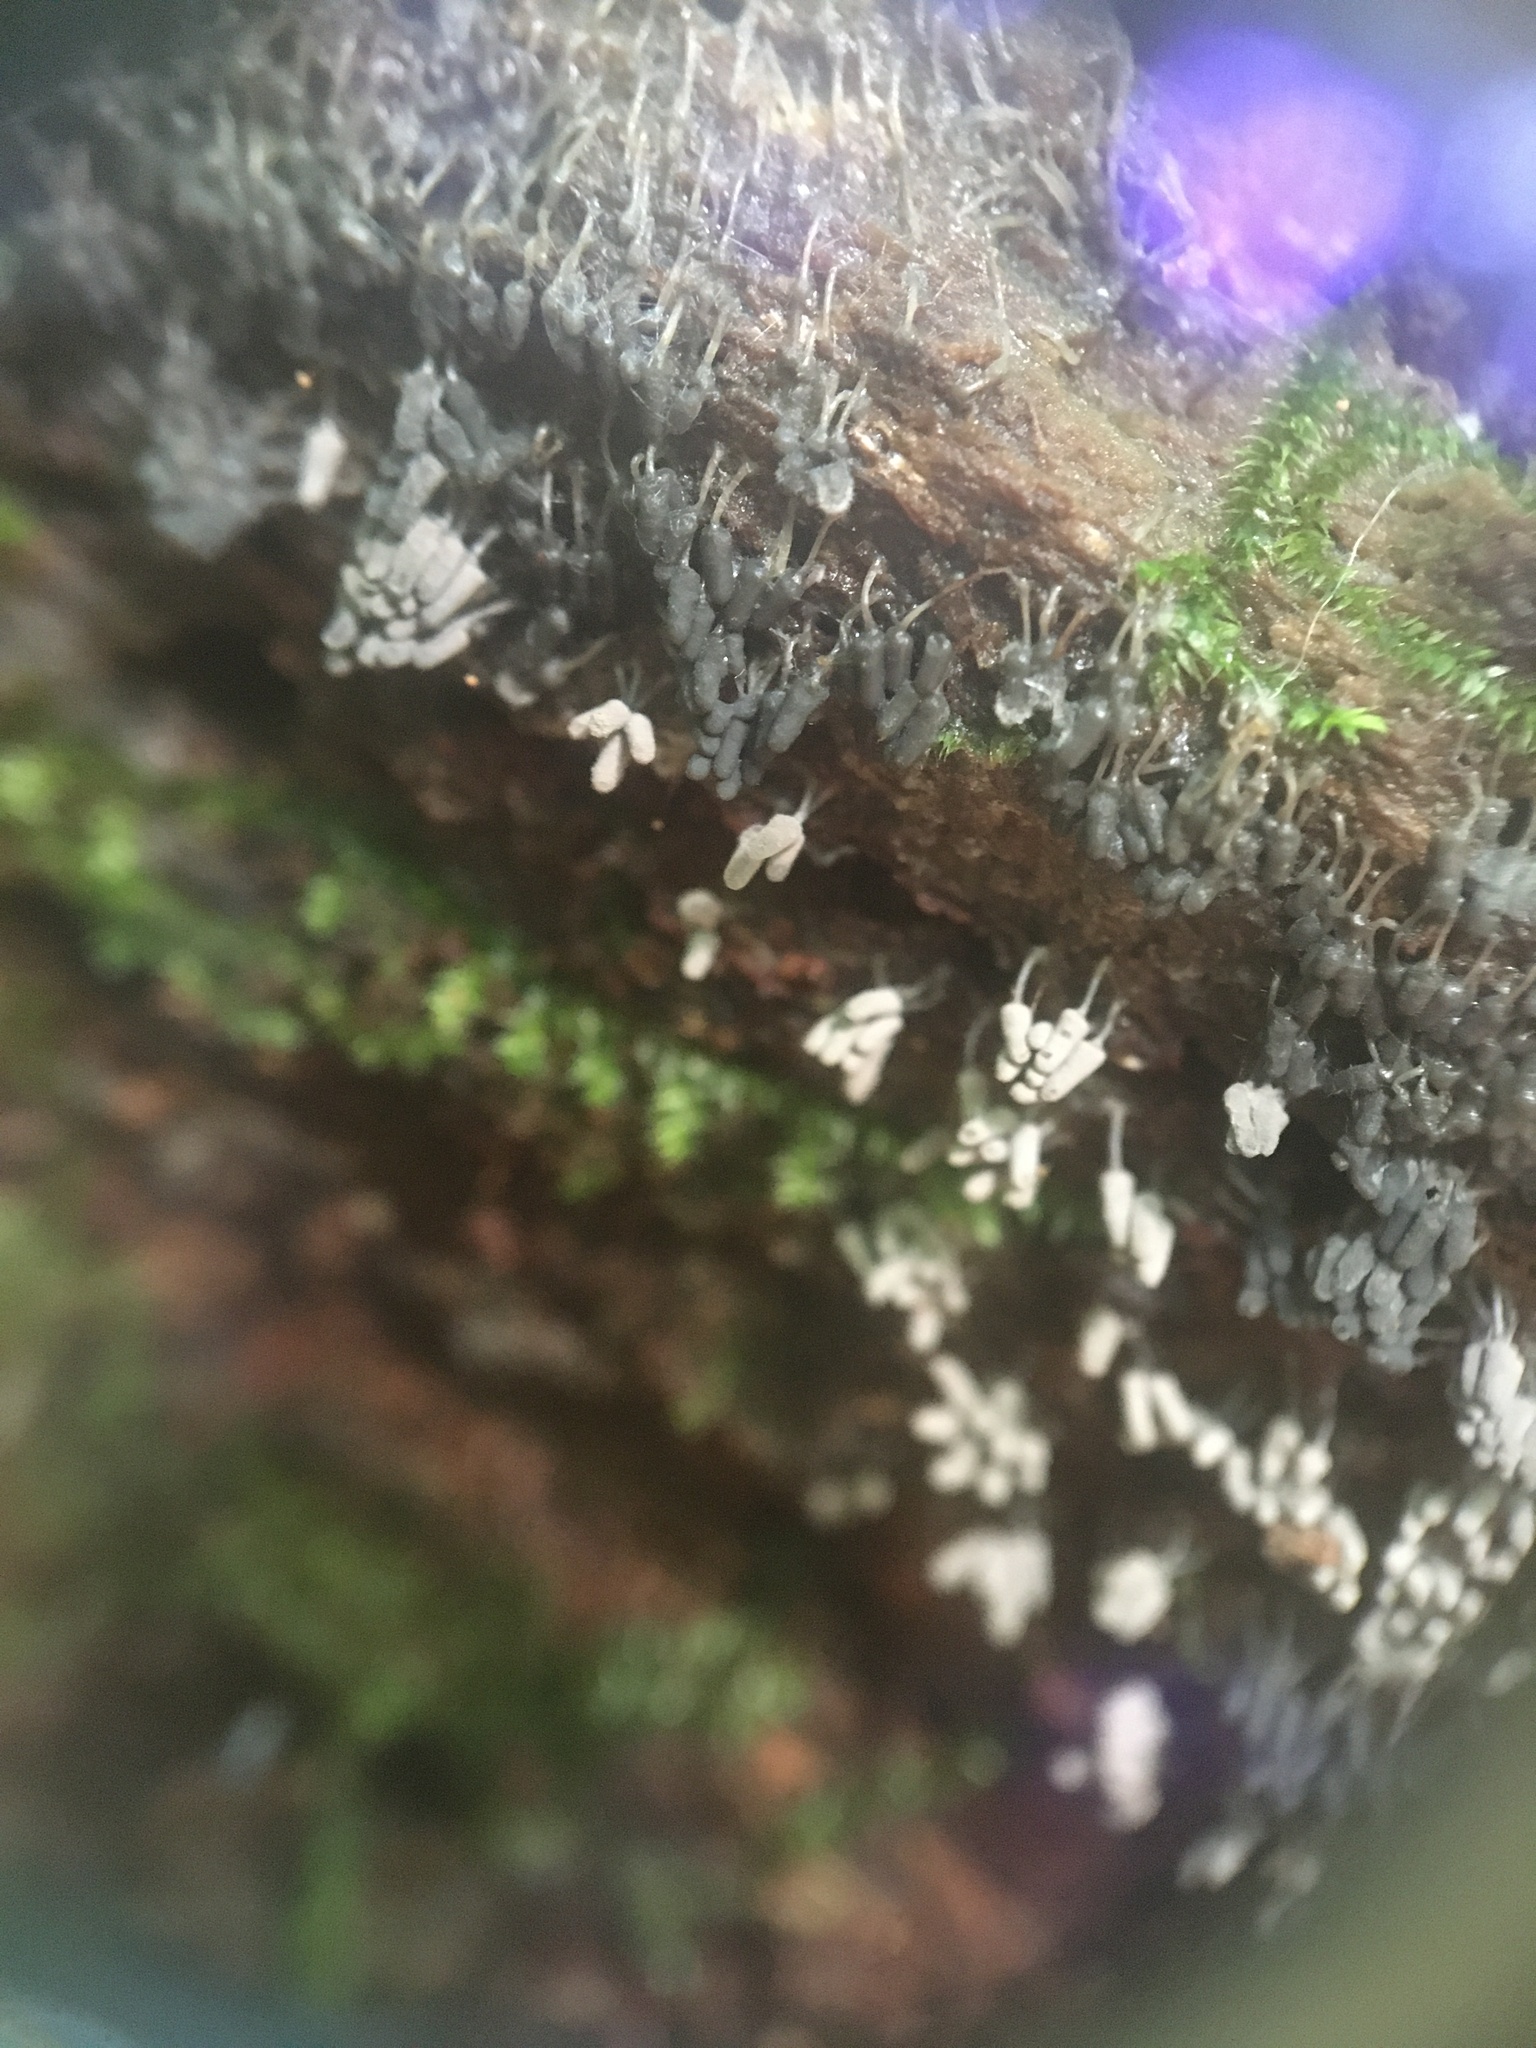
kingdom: Protozoa
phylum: Mycetozoa
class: Myxomycetes
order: Trichiales
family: Arcyriaceae
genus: Arcyria
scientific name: Arcyria cinerea
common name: White carnival candy slime mold
